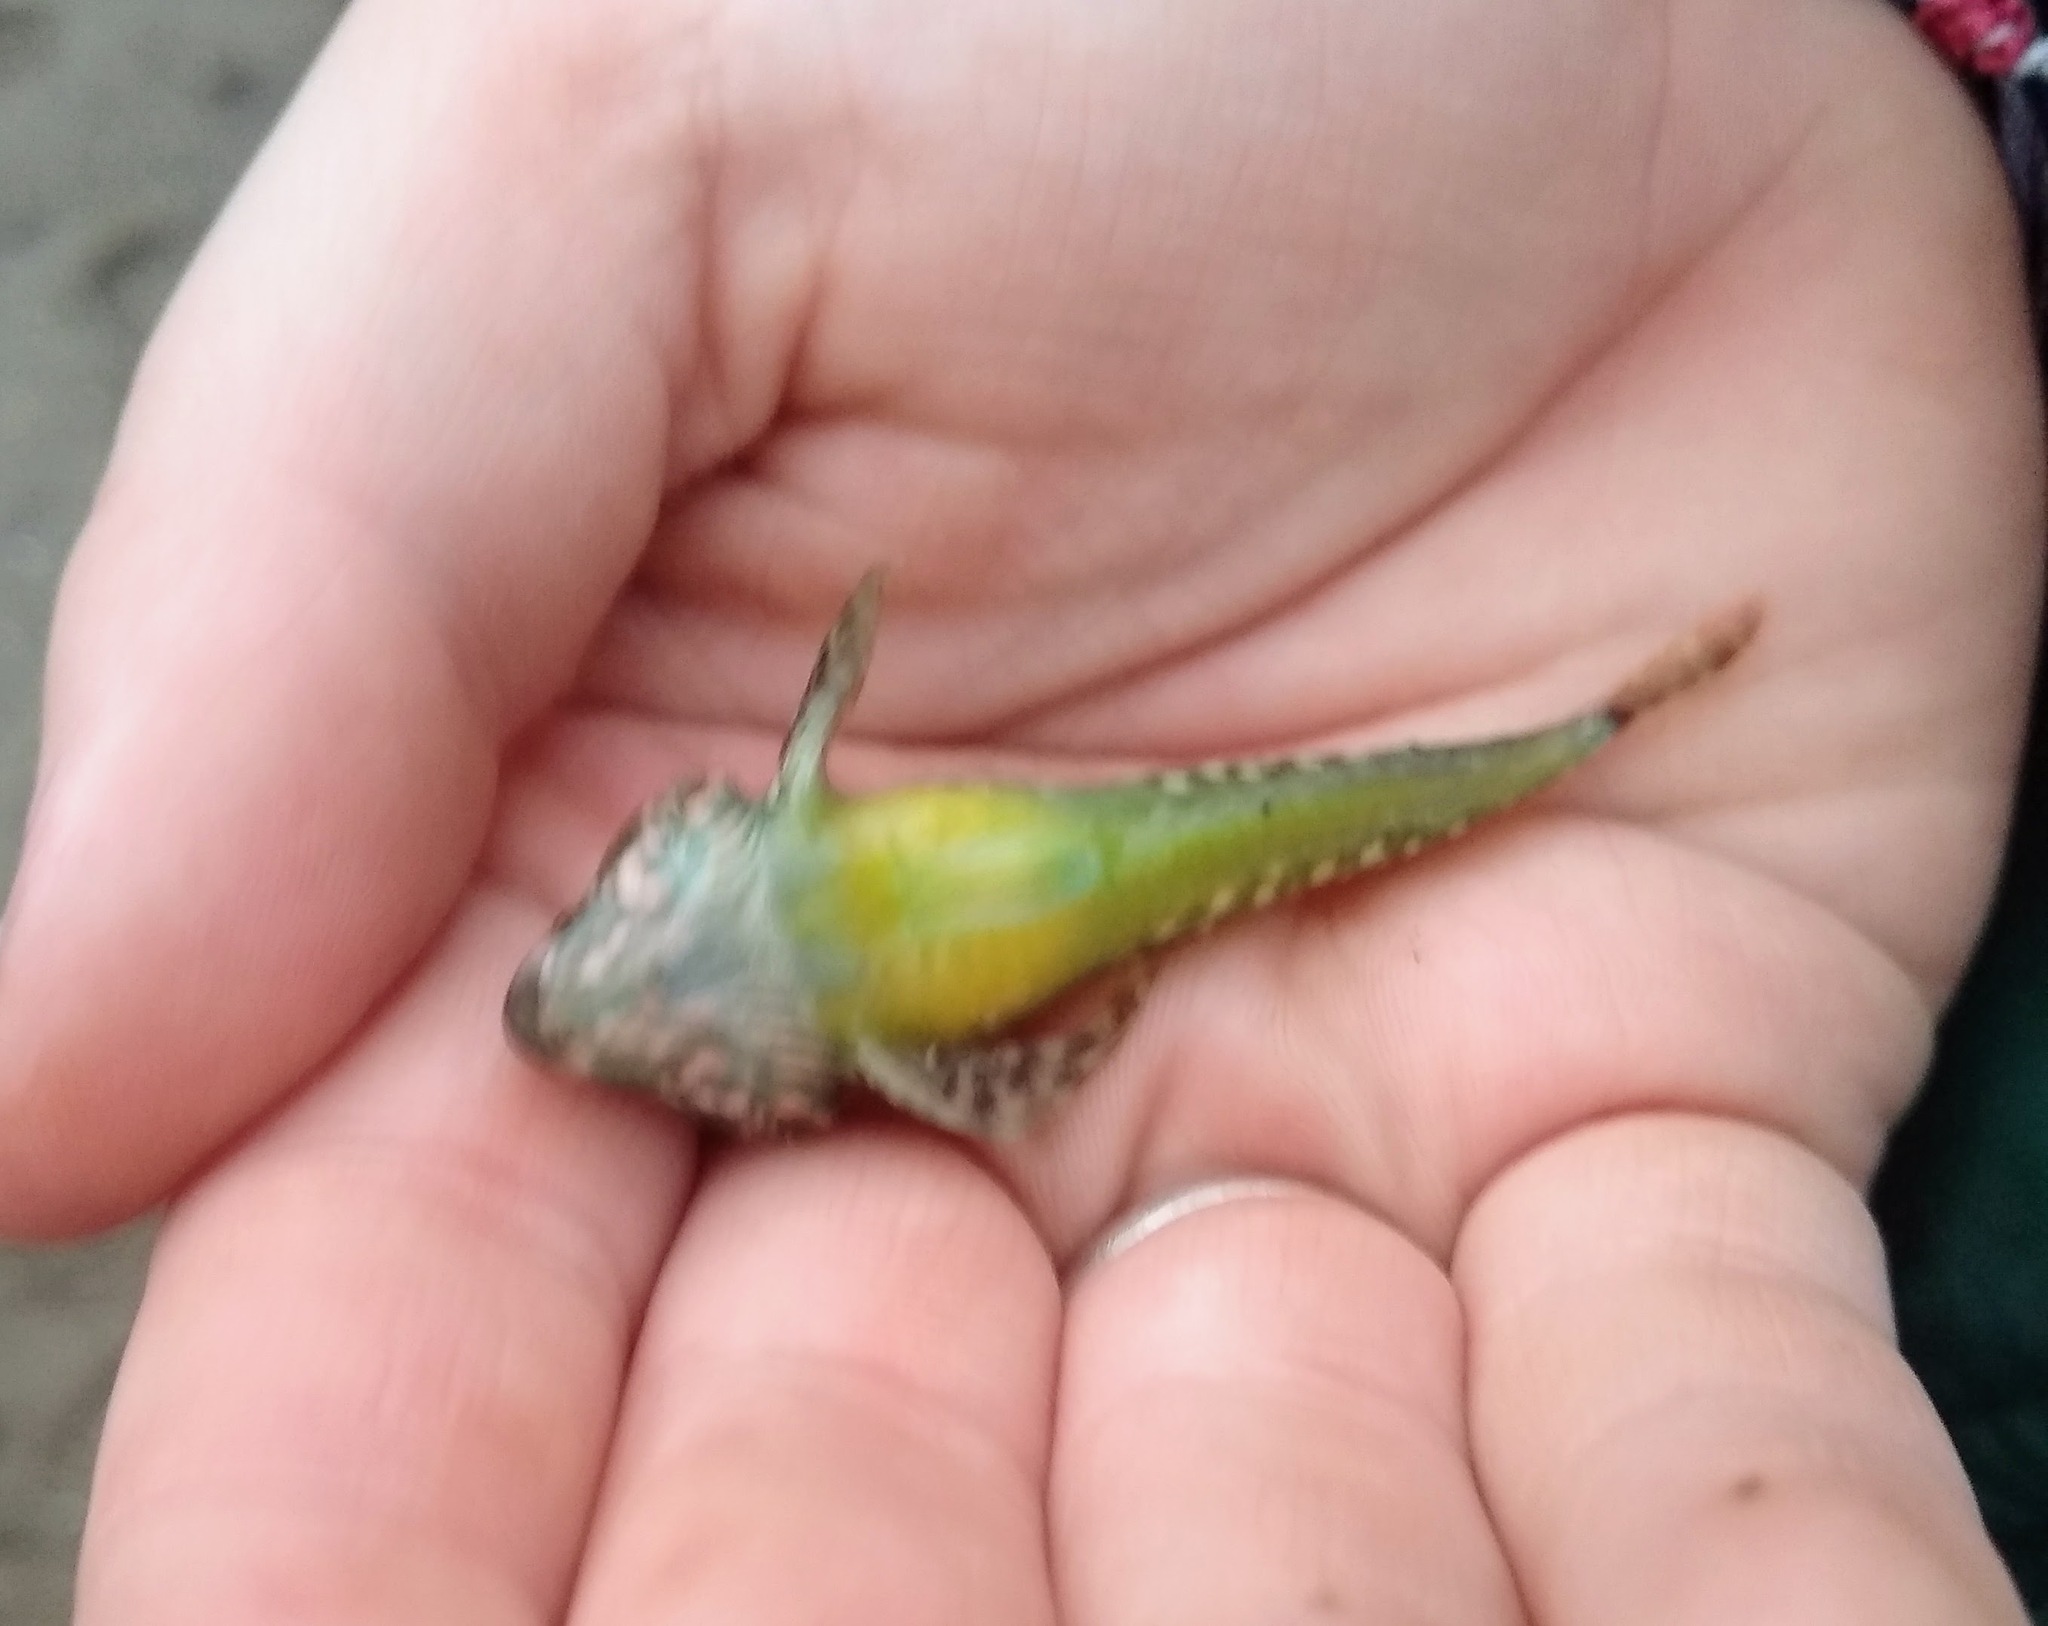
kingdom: Animalia
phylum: Chordata
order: Scorpaeniformes
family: Cottidae
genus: Oligocottus
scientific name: Oligocottus maculosus
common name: Tidepool sculpin
